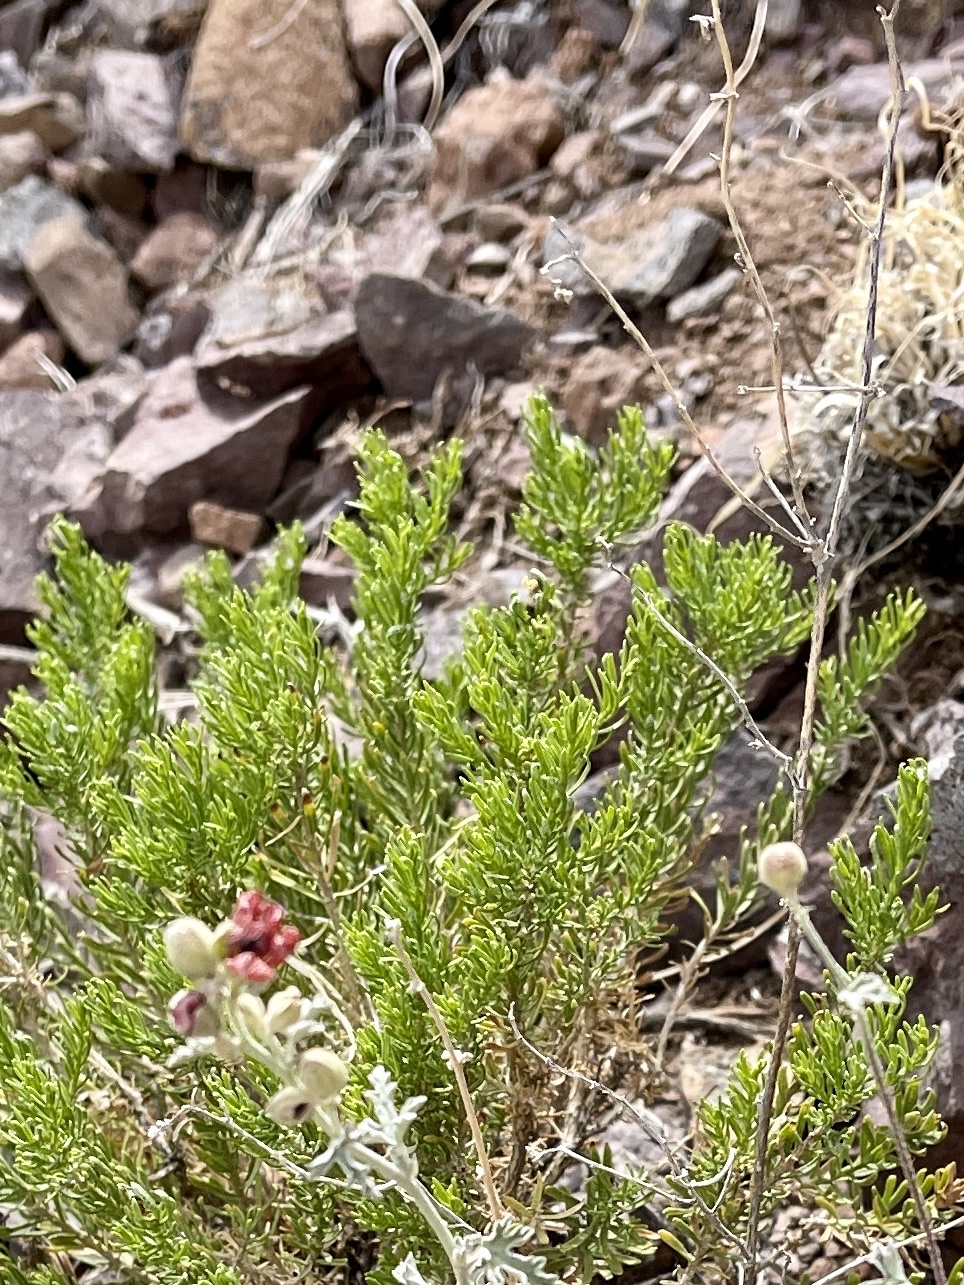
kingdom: Plantae
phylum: Tracheophyta
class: Magnoliopsida
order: Asterales
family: Asteraceae
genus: Ericameria
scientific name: Ericameria laricifolia
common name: Turpentine-bush
